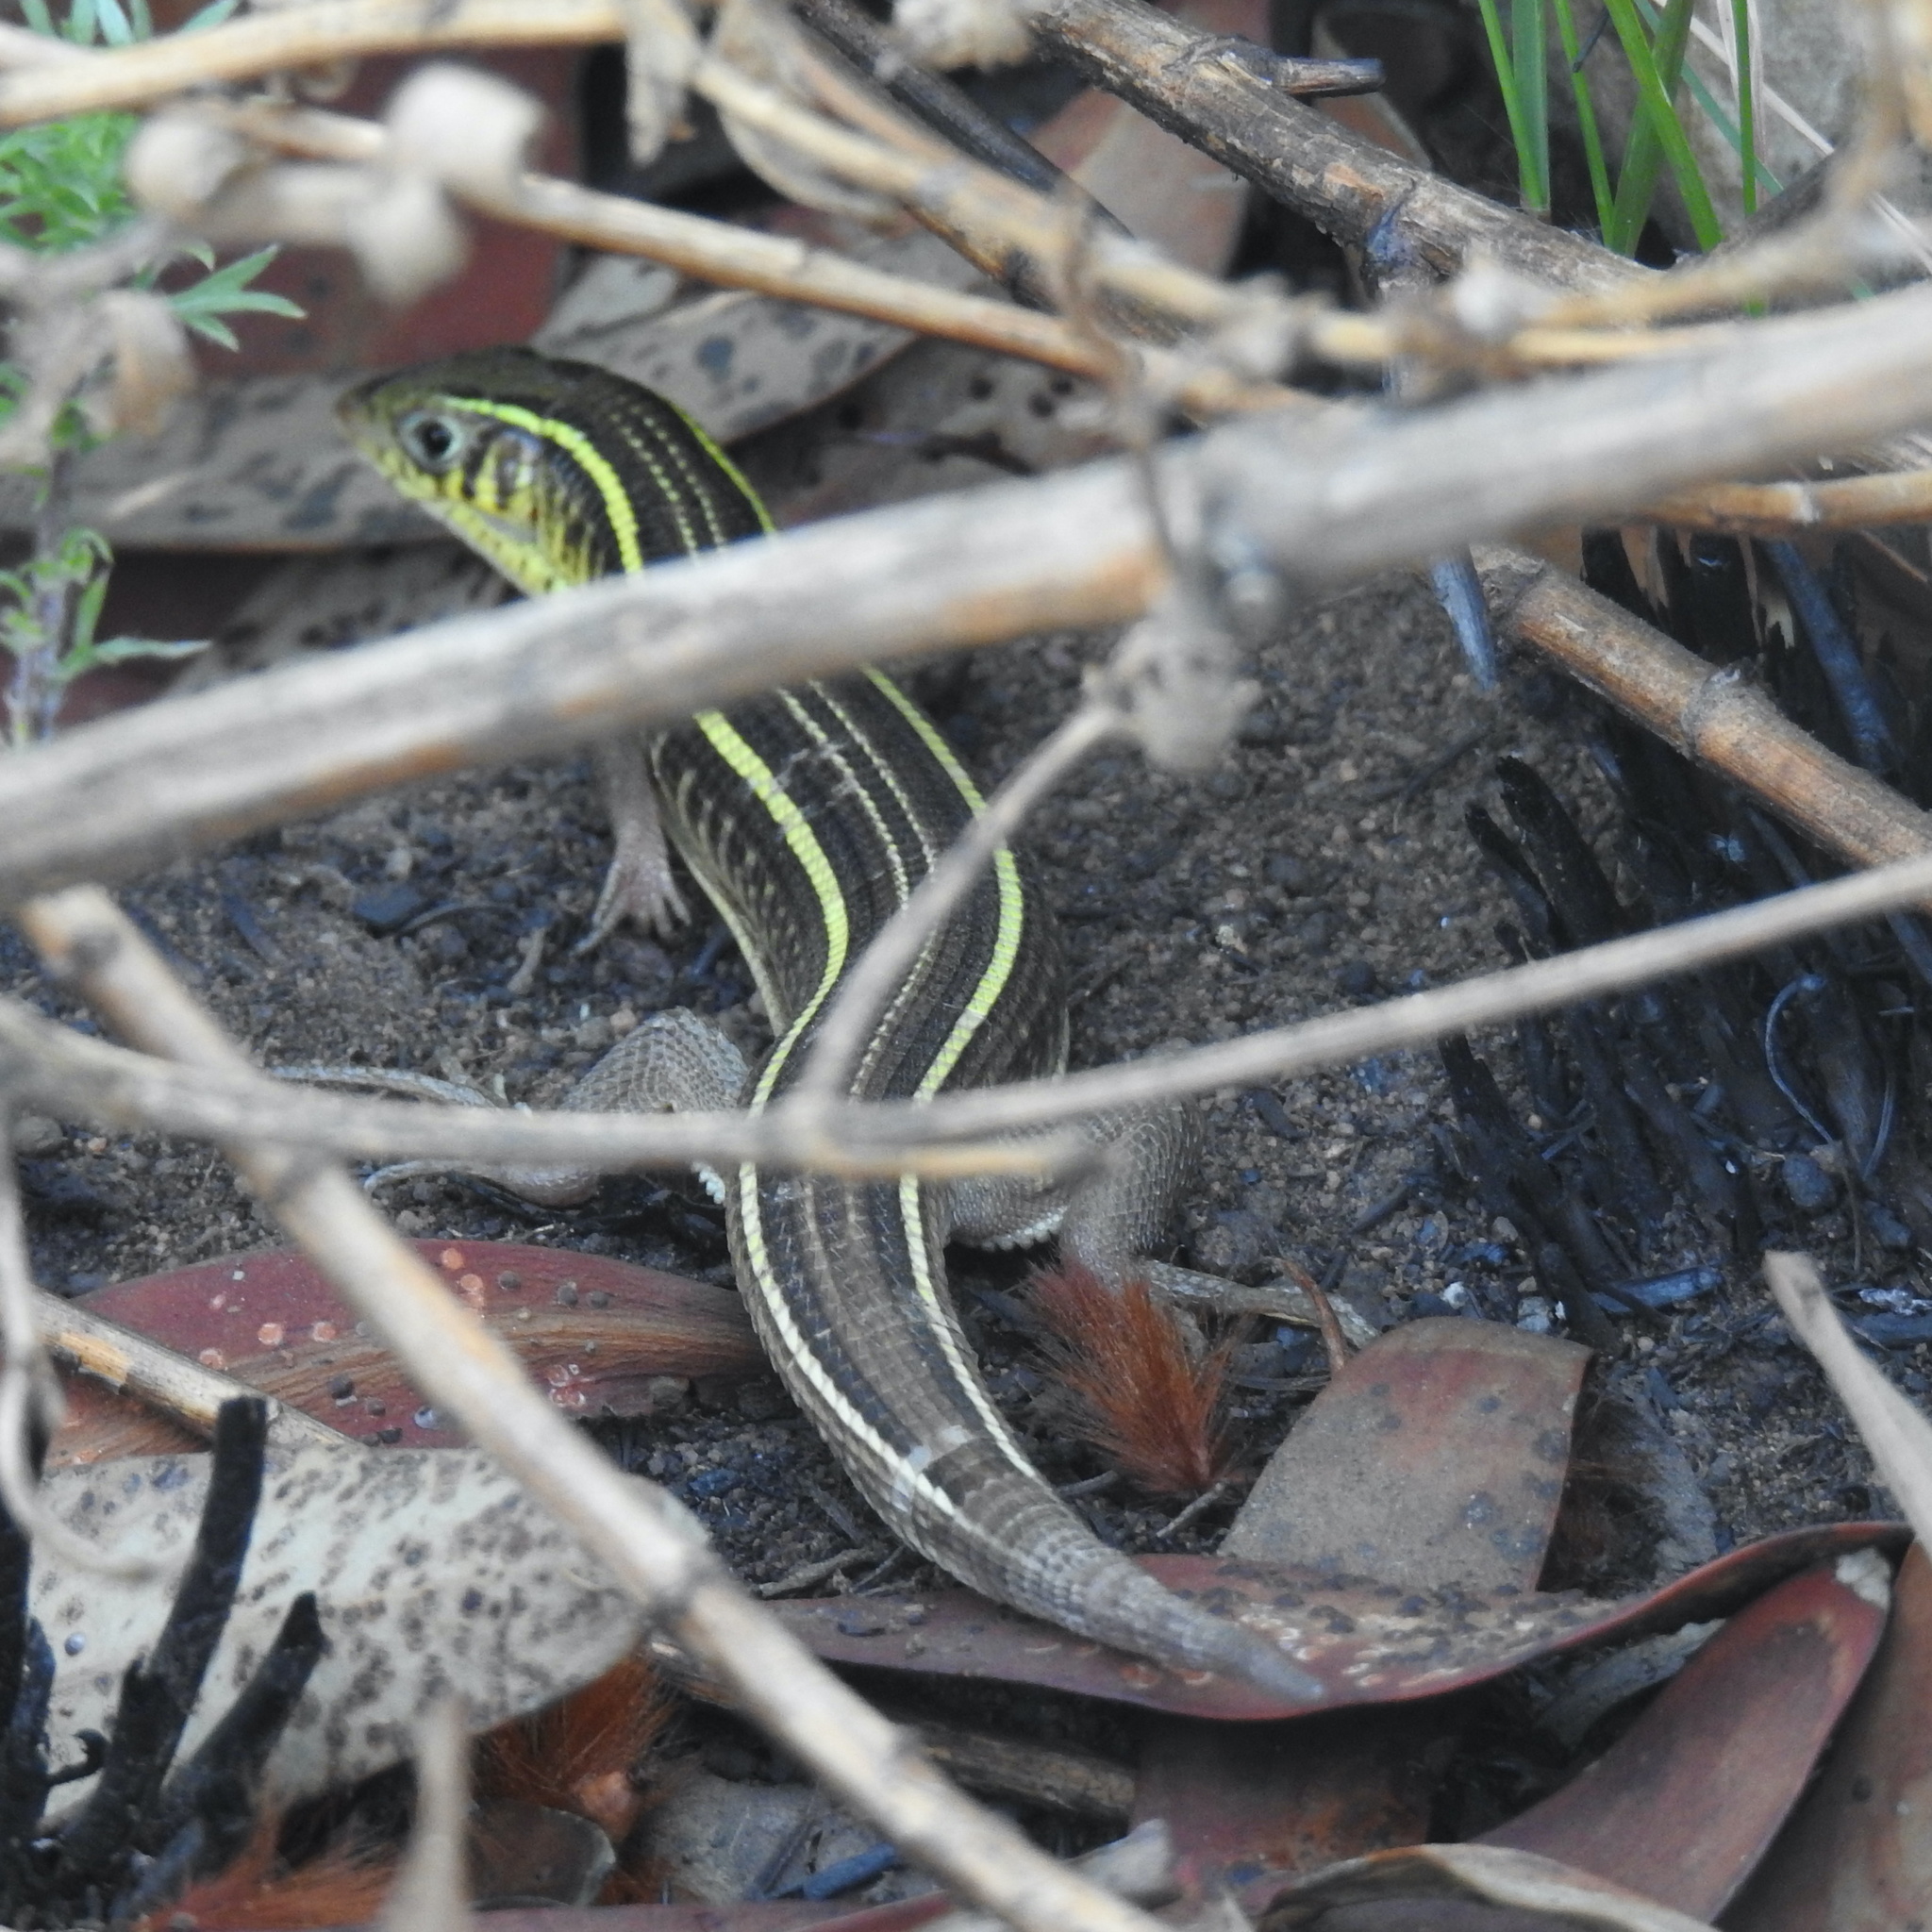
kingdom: Animalia
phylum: Chordata
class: Squamata
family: Gerrhosauridae
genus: Gerrhosaurus
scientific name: Gerrhosaurus flavigularis
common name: Yellow-throated plated lizard
